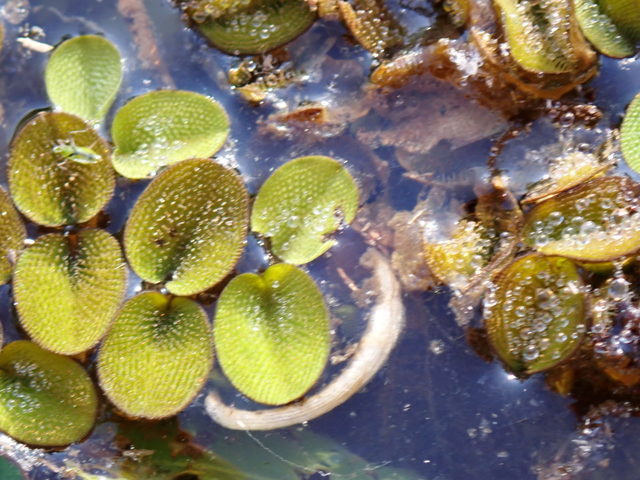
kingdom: Plantae
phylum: Tracheophyta
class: Polypodiopsida
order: Salviniales
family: Salviniaceae
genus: Salvinia
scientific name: Salvinia minima
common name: Water spangles
